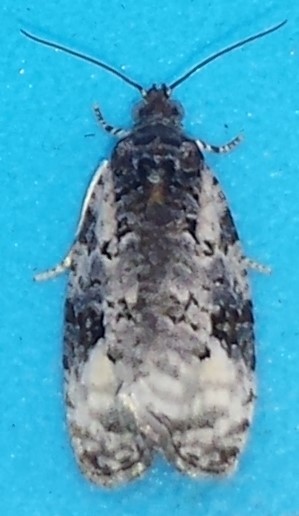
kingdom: Animalia
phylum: Arthropoda
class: Insecta
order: Lepidoptera
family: Tortricidae
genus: Apotomis
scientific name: Apotomis albeolana
